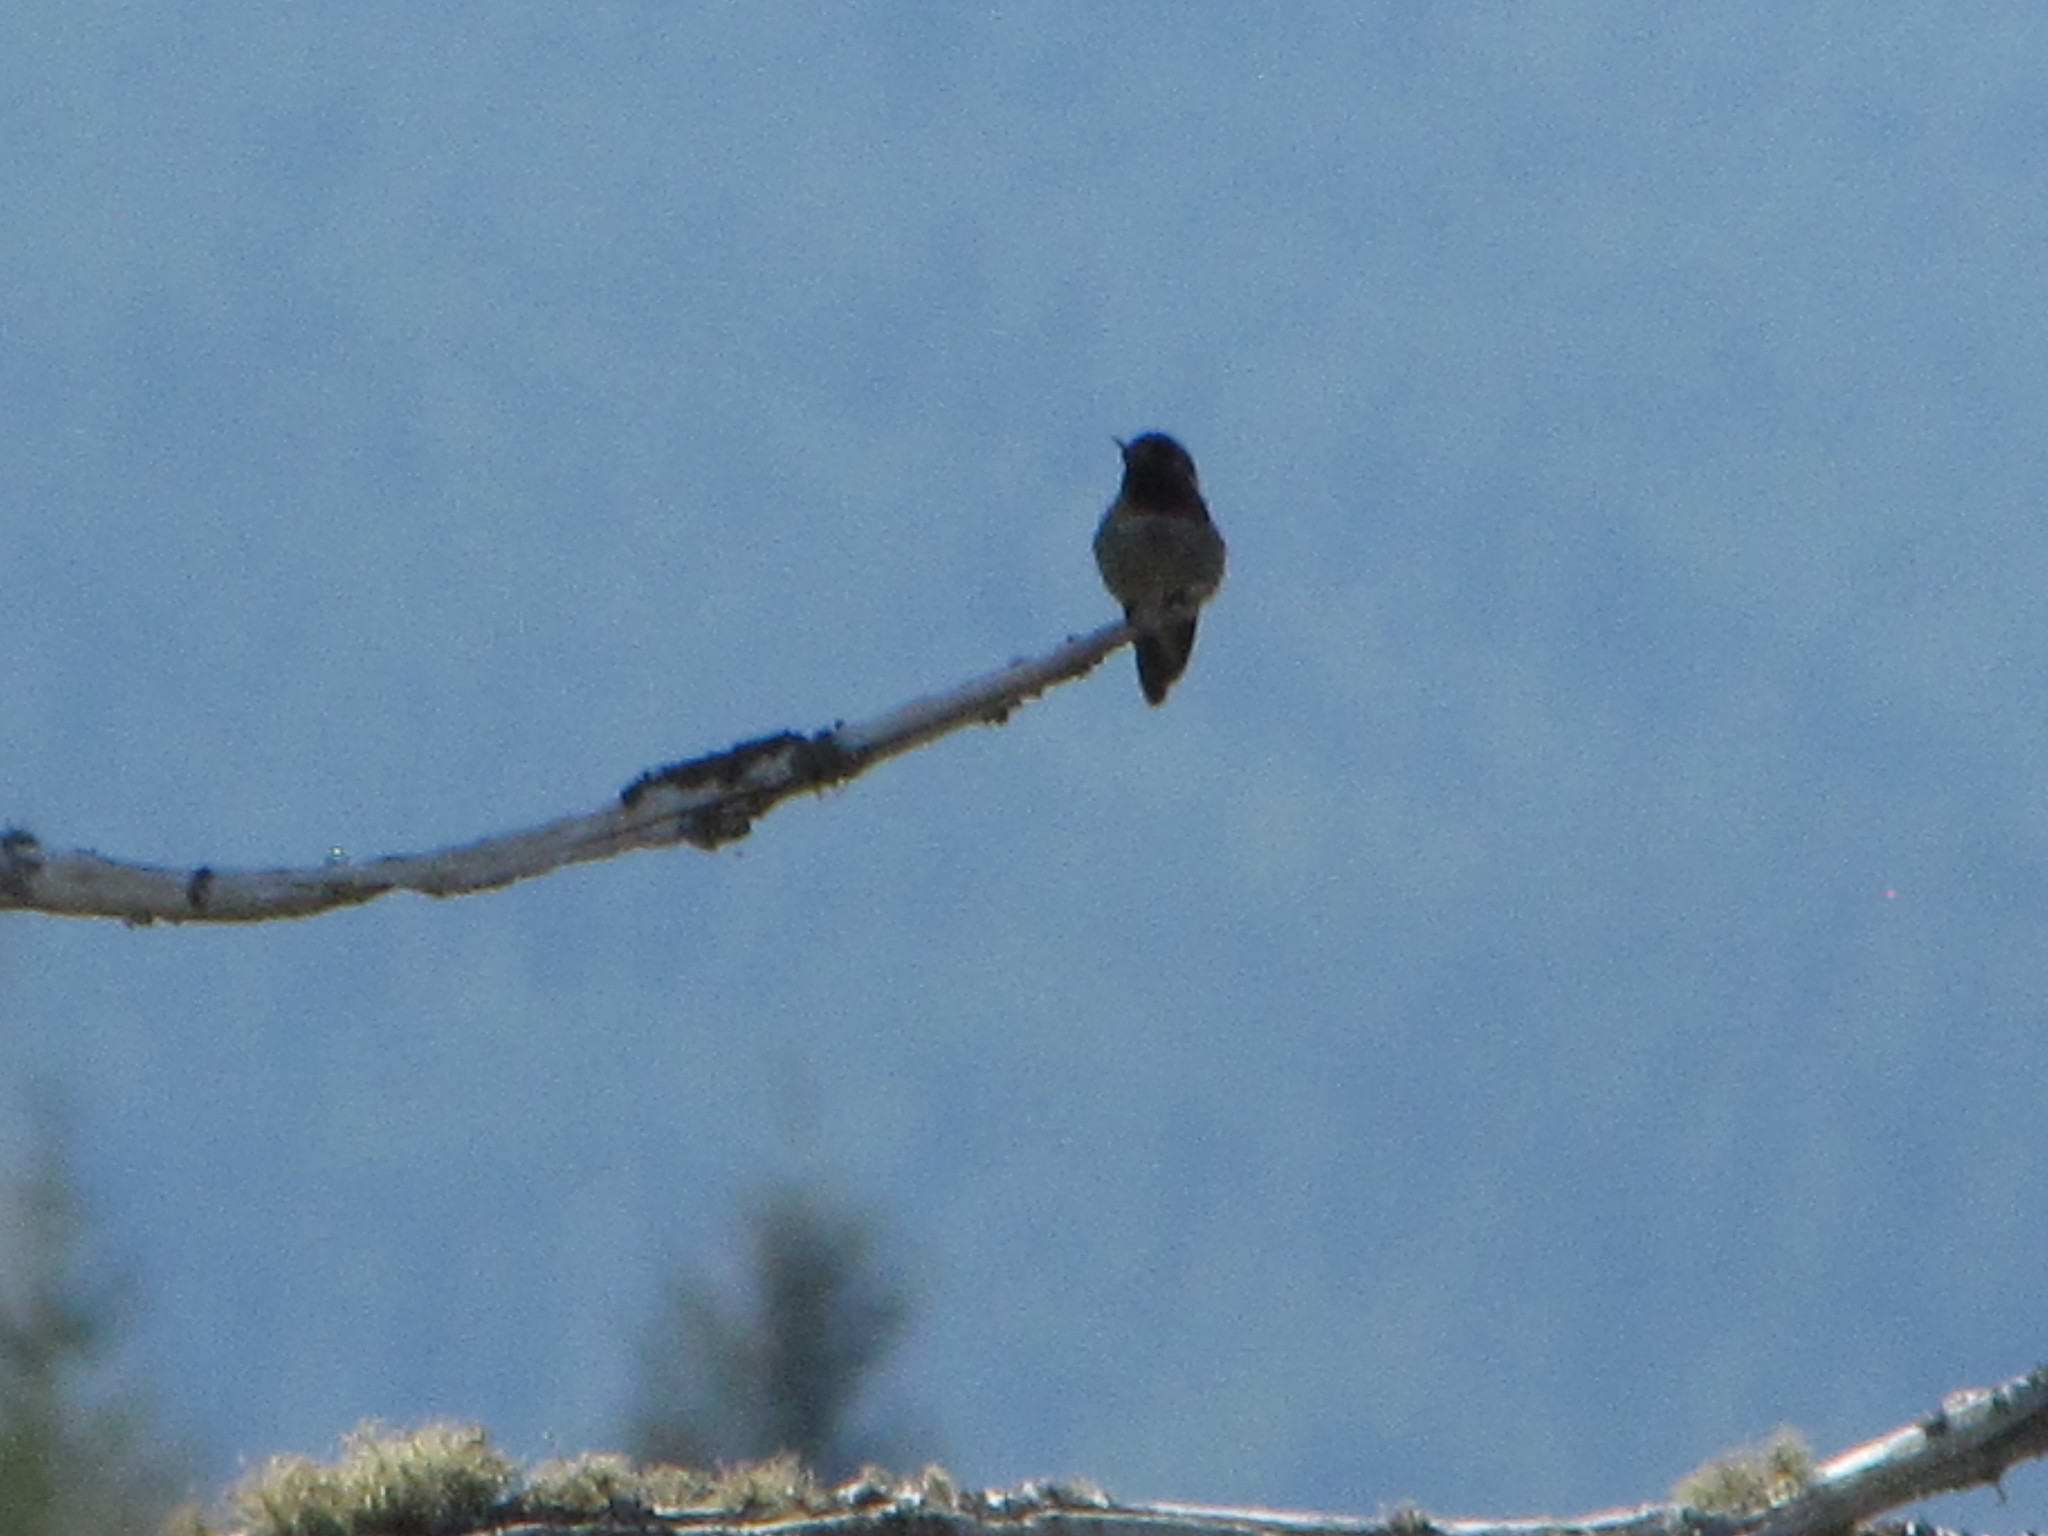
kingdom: Animalia
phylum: Chordata
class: Aves
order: Apodiformes
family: Trochilidae
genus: Calypte
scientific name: Calypte anna
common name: Anna's hummingbird
